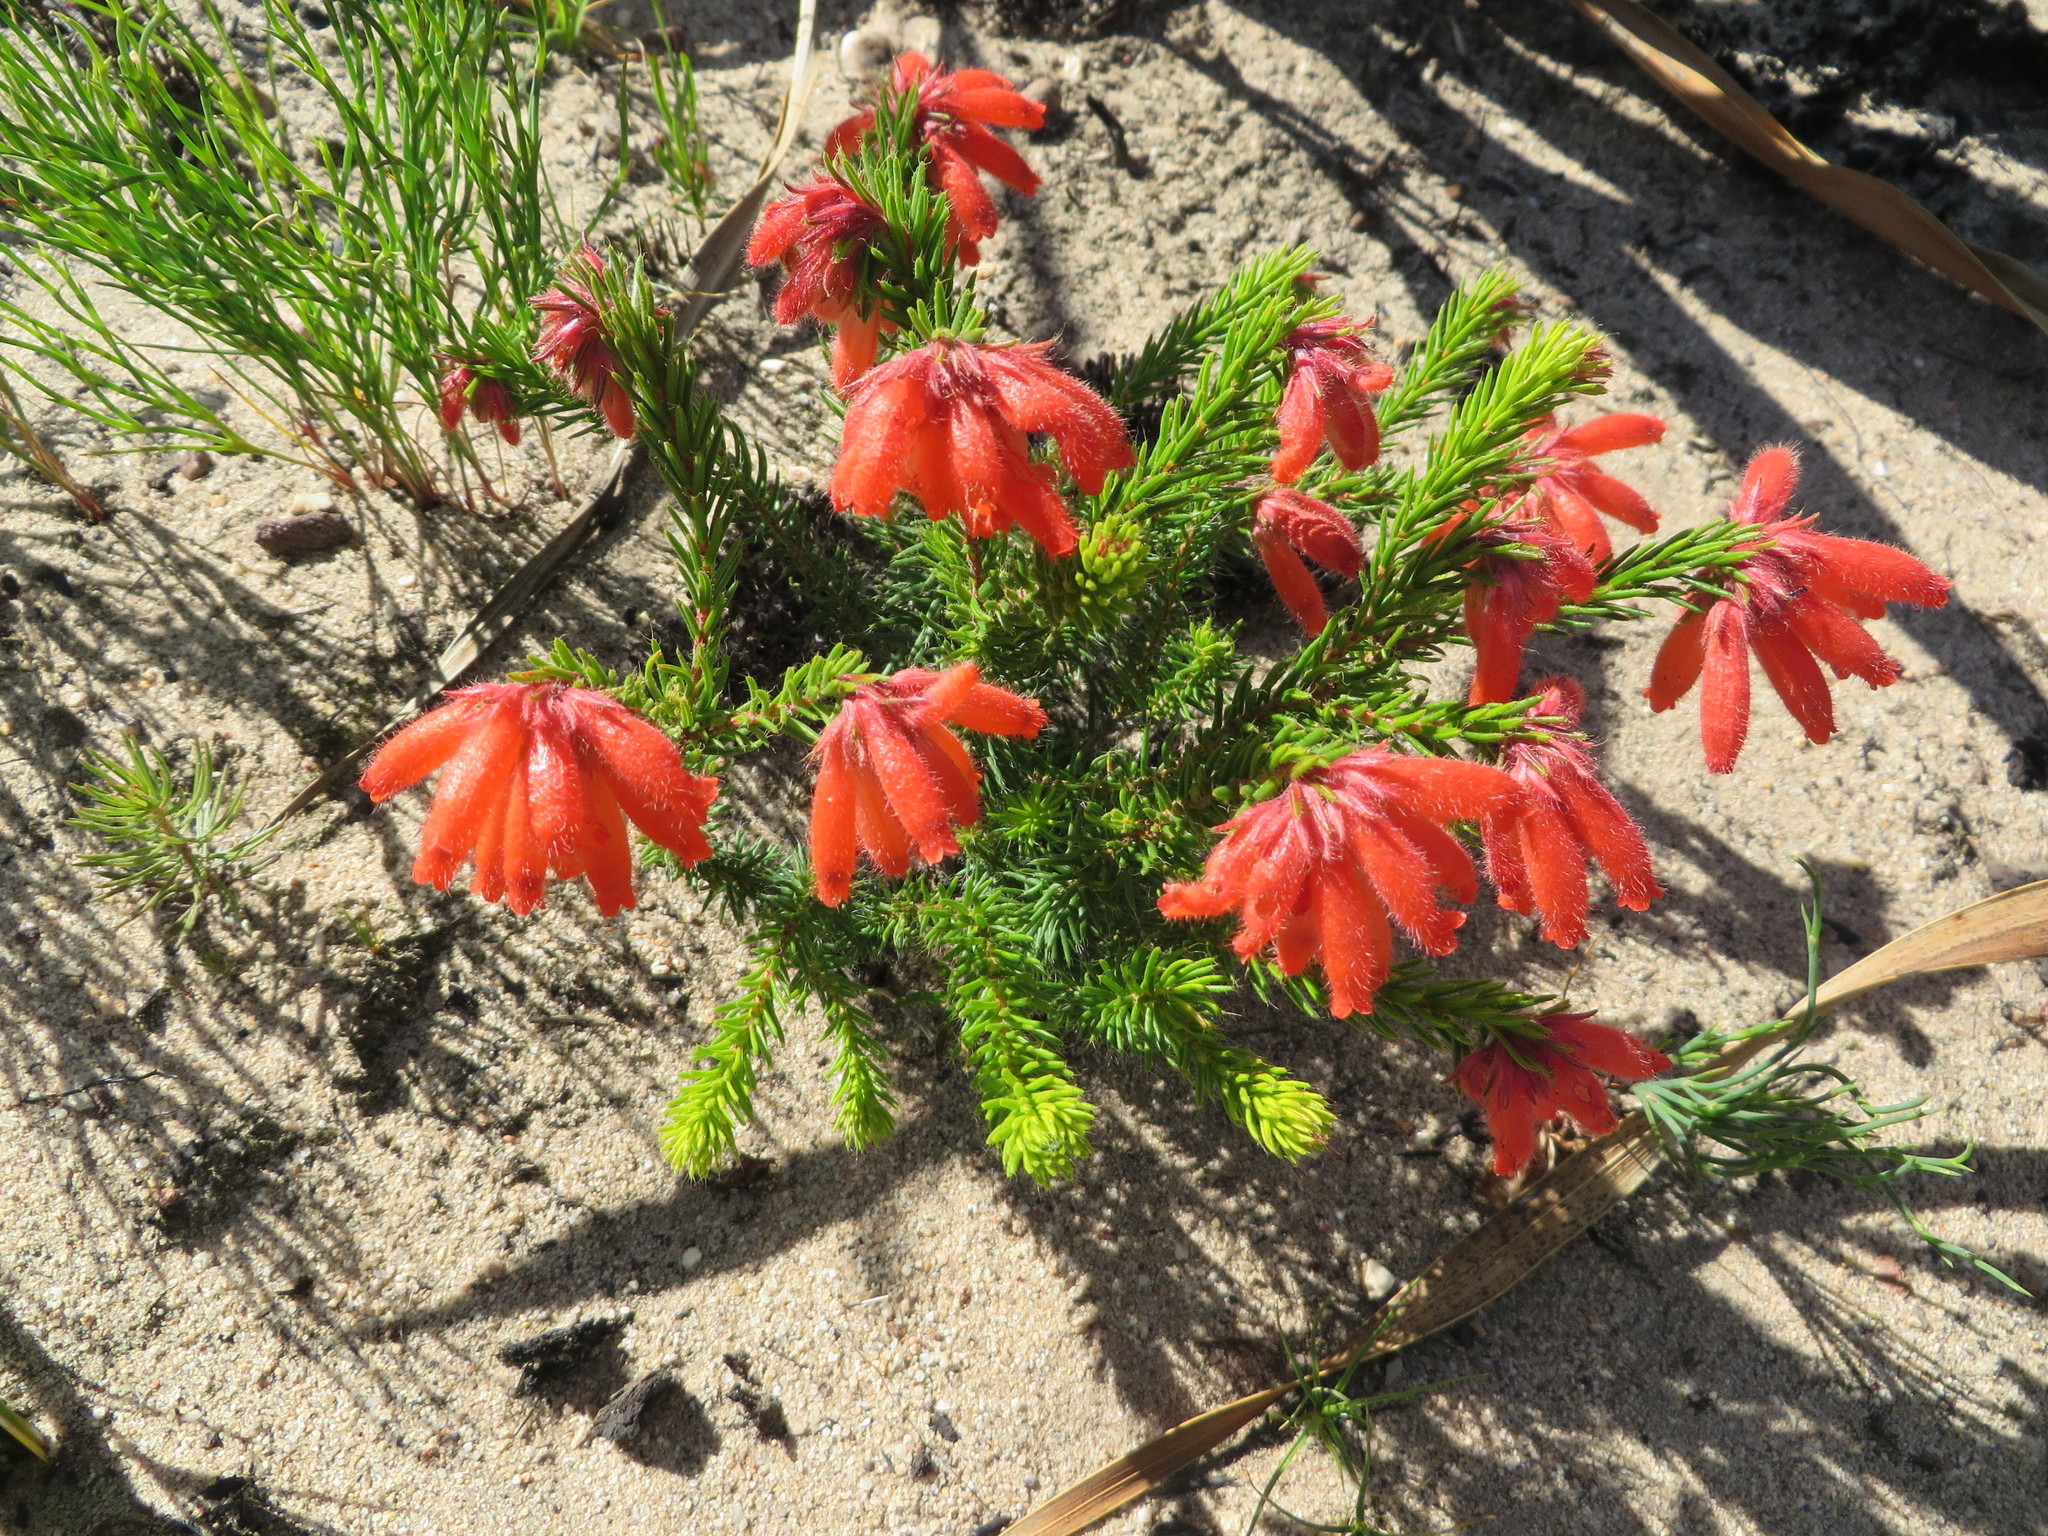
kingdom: Plantae
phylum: Tracheophyta
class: Magnoliopsida
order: Ericales
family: Ericaceae
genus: Erica
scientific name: Erica cerinthoides
